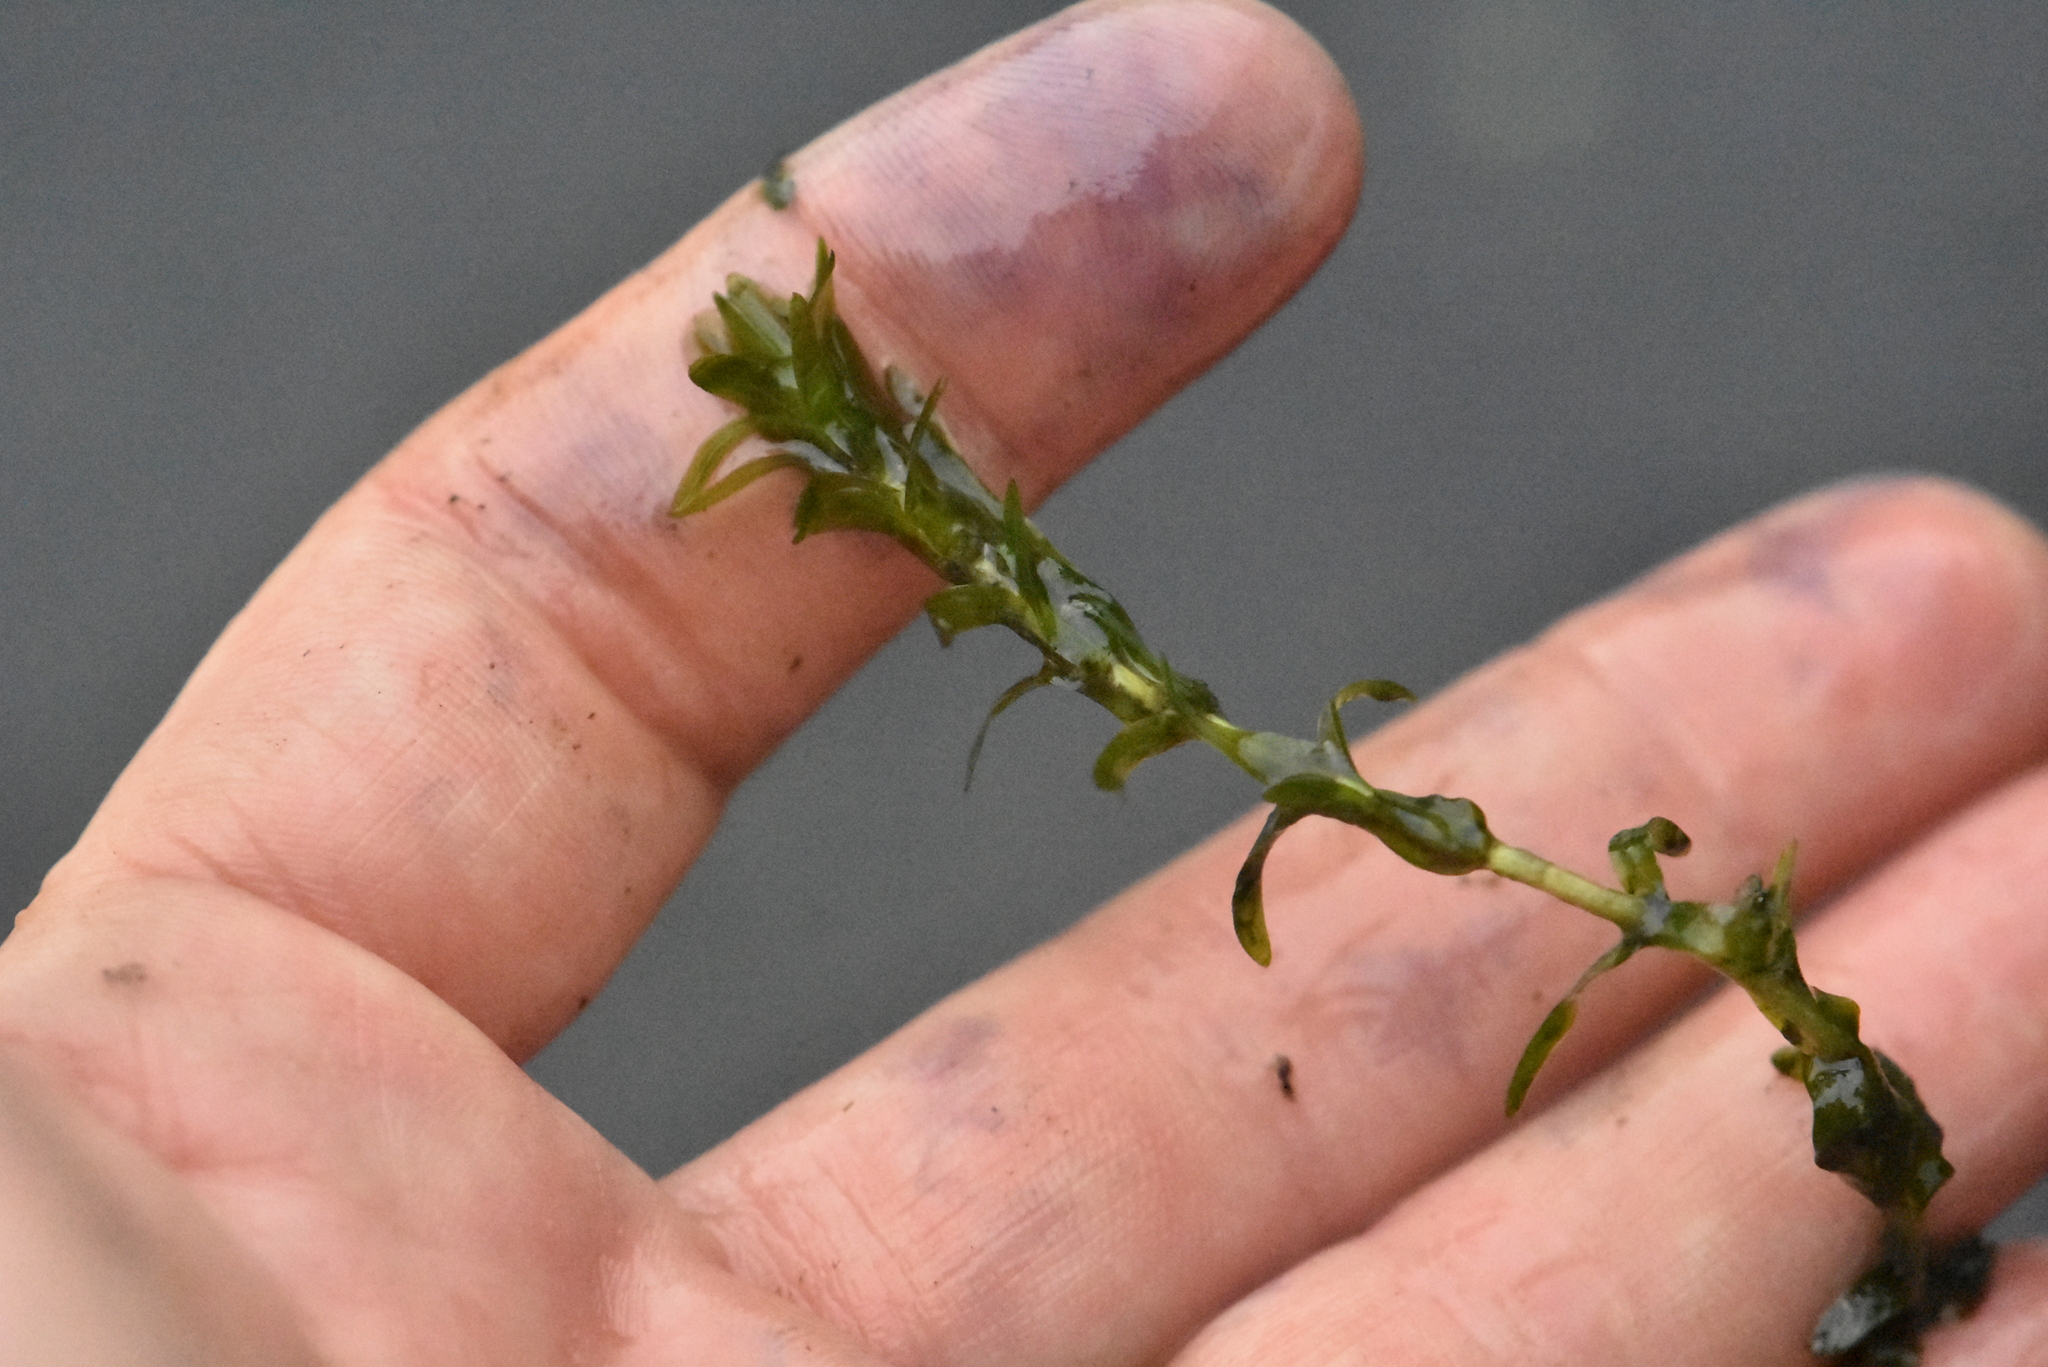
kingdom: Plantae
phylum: Tracheophyta
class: Liliopsida
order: Alismatales
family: Hydrocharitaceae
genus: Elodea
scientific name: Elodea canadensis
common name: Canadian waterweed
